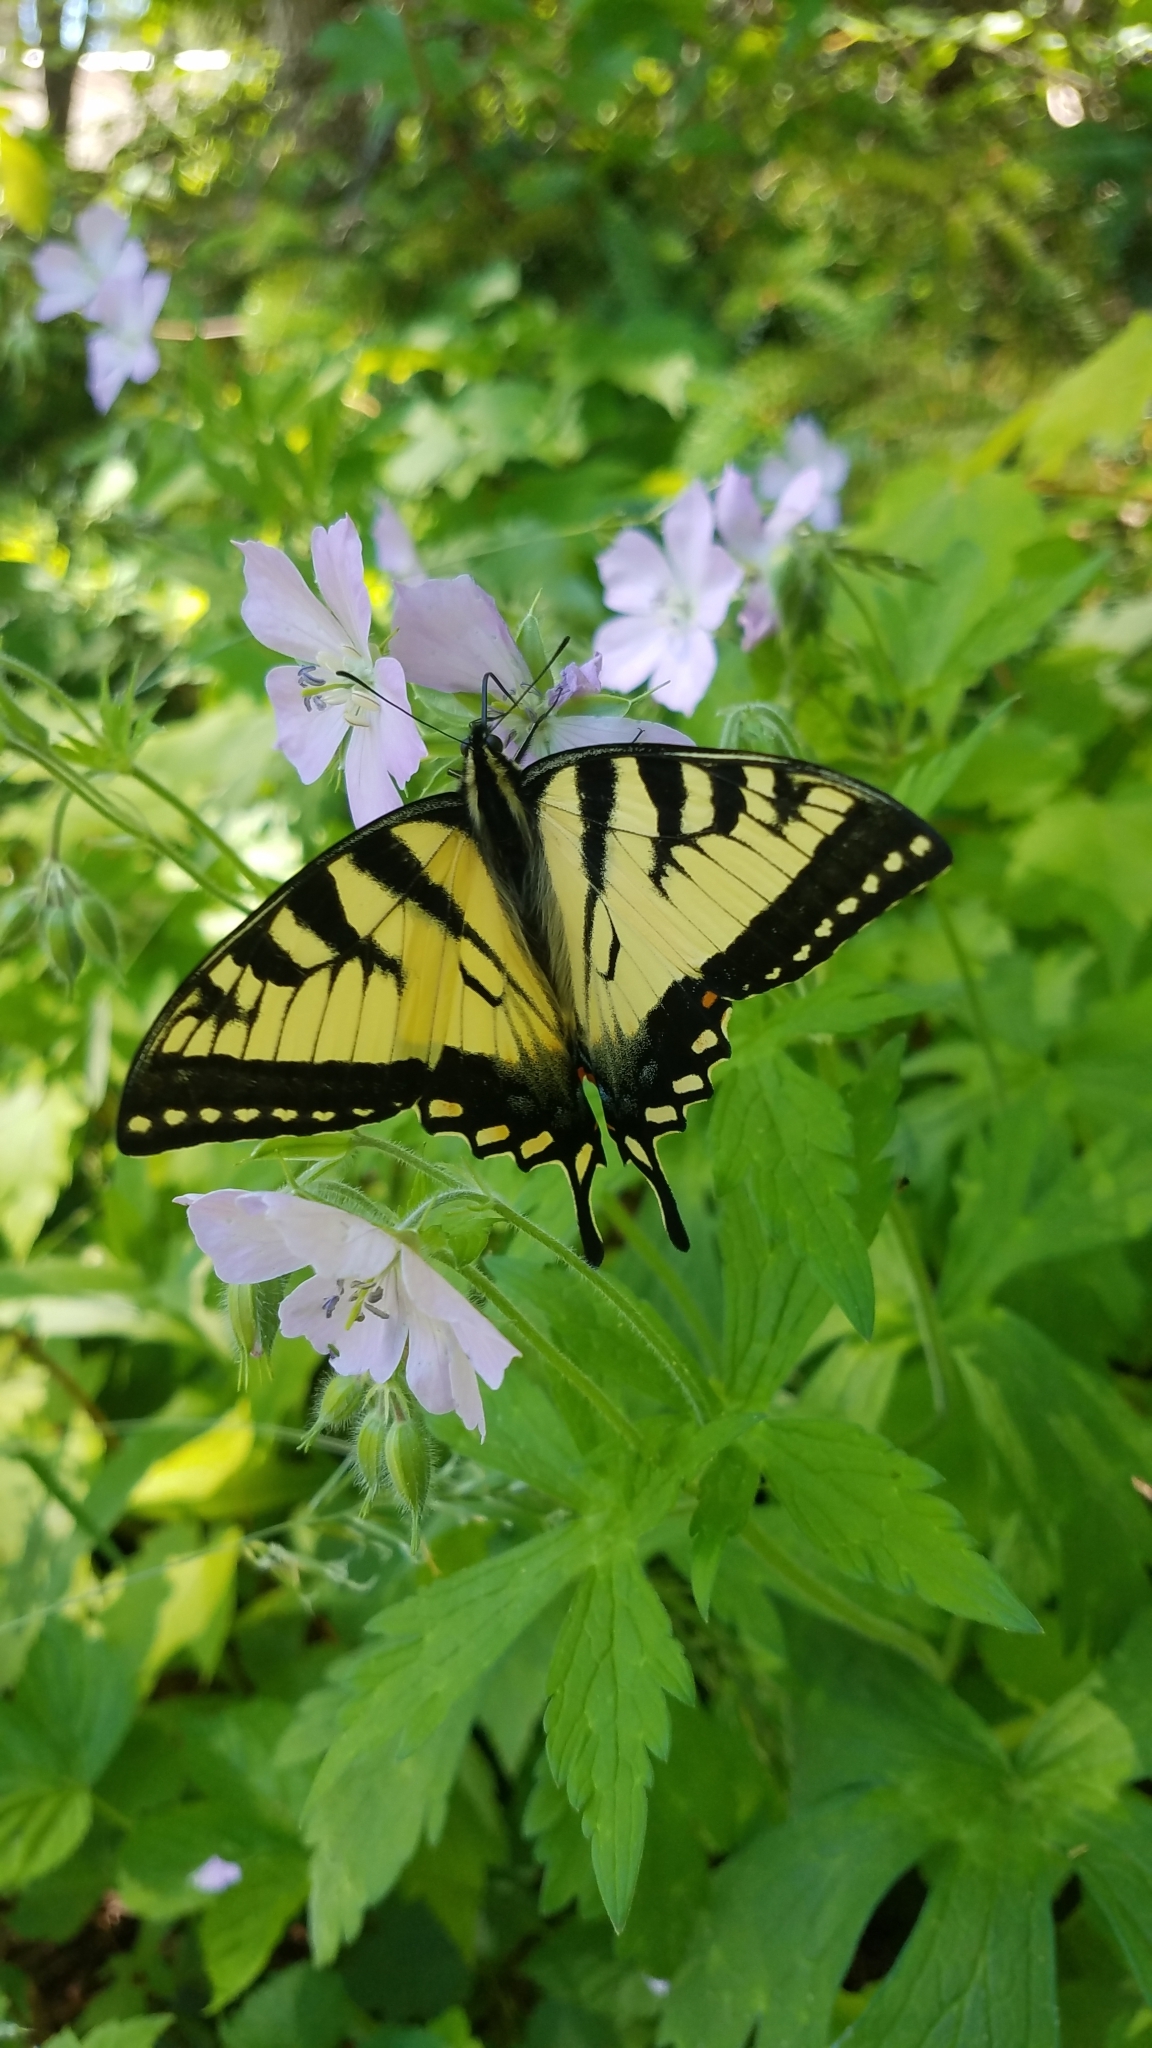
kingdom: Animalia
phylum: Arthropoda
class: Insecta
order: Lepidoptera
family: Papilionidae
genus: Papilio
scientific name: Papilio canadensis
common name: Canadian tiger swallowtail
